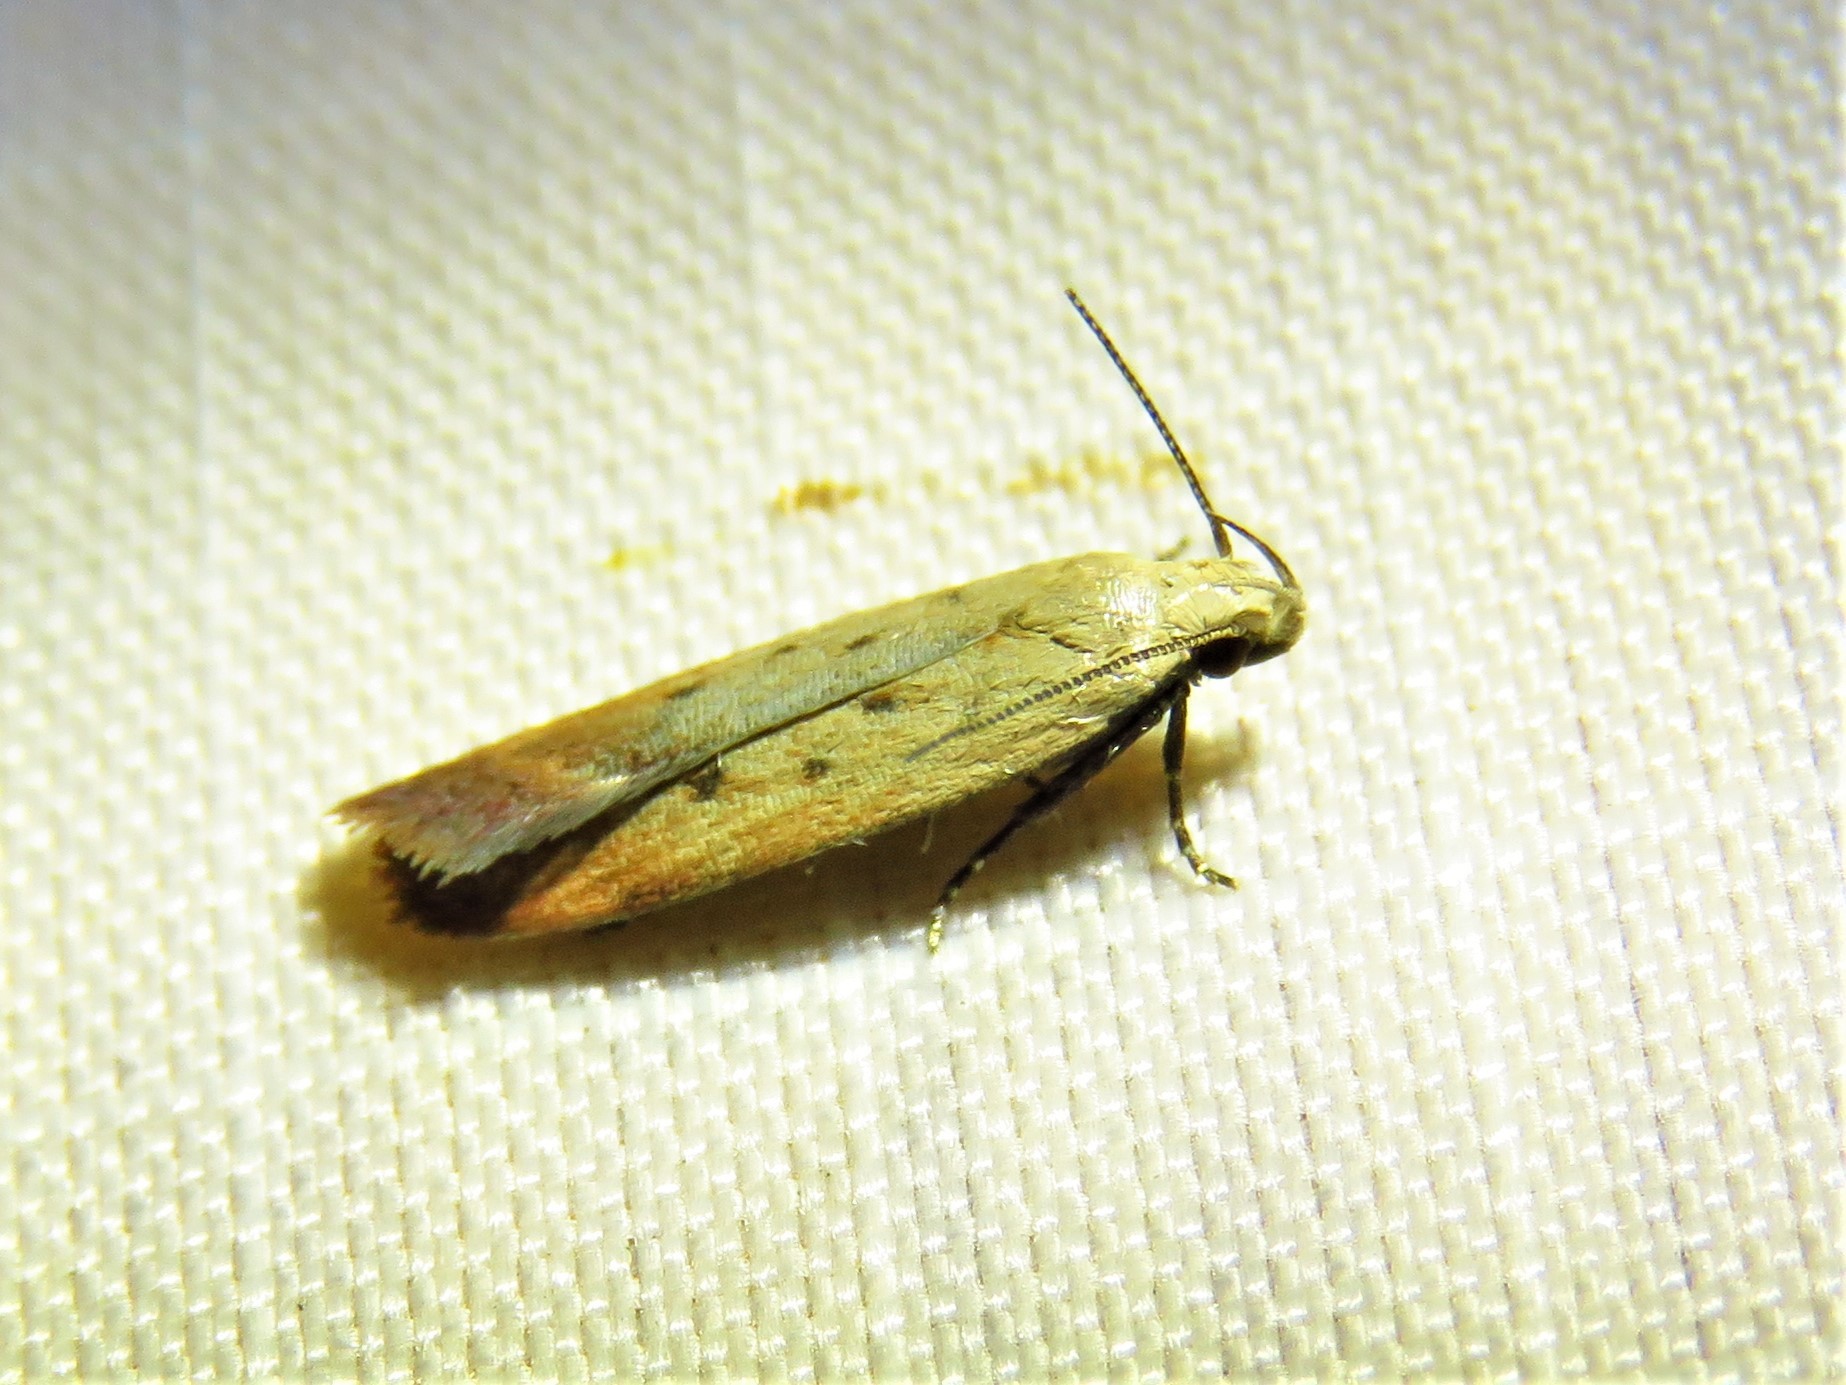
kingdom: Animalia
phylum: Arthropoda
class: Insecta
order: Lepidoptera
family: Gelechiidae
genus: Anacampsis
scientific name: Anacampsis fullonella
